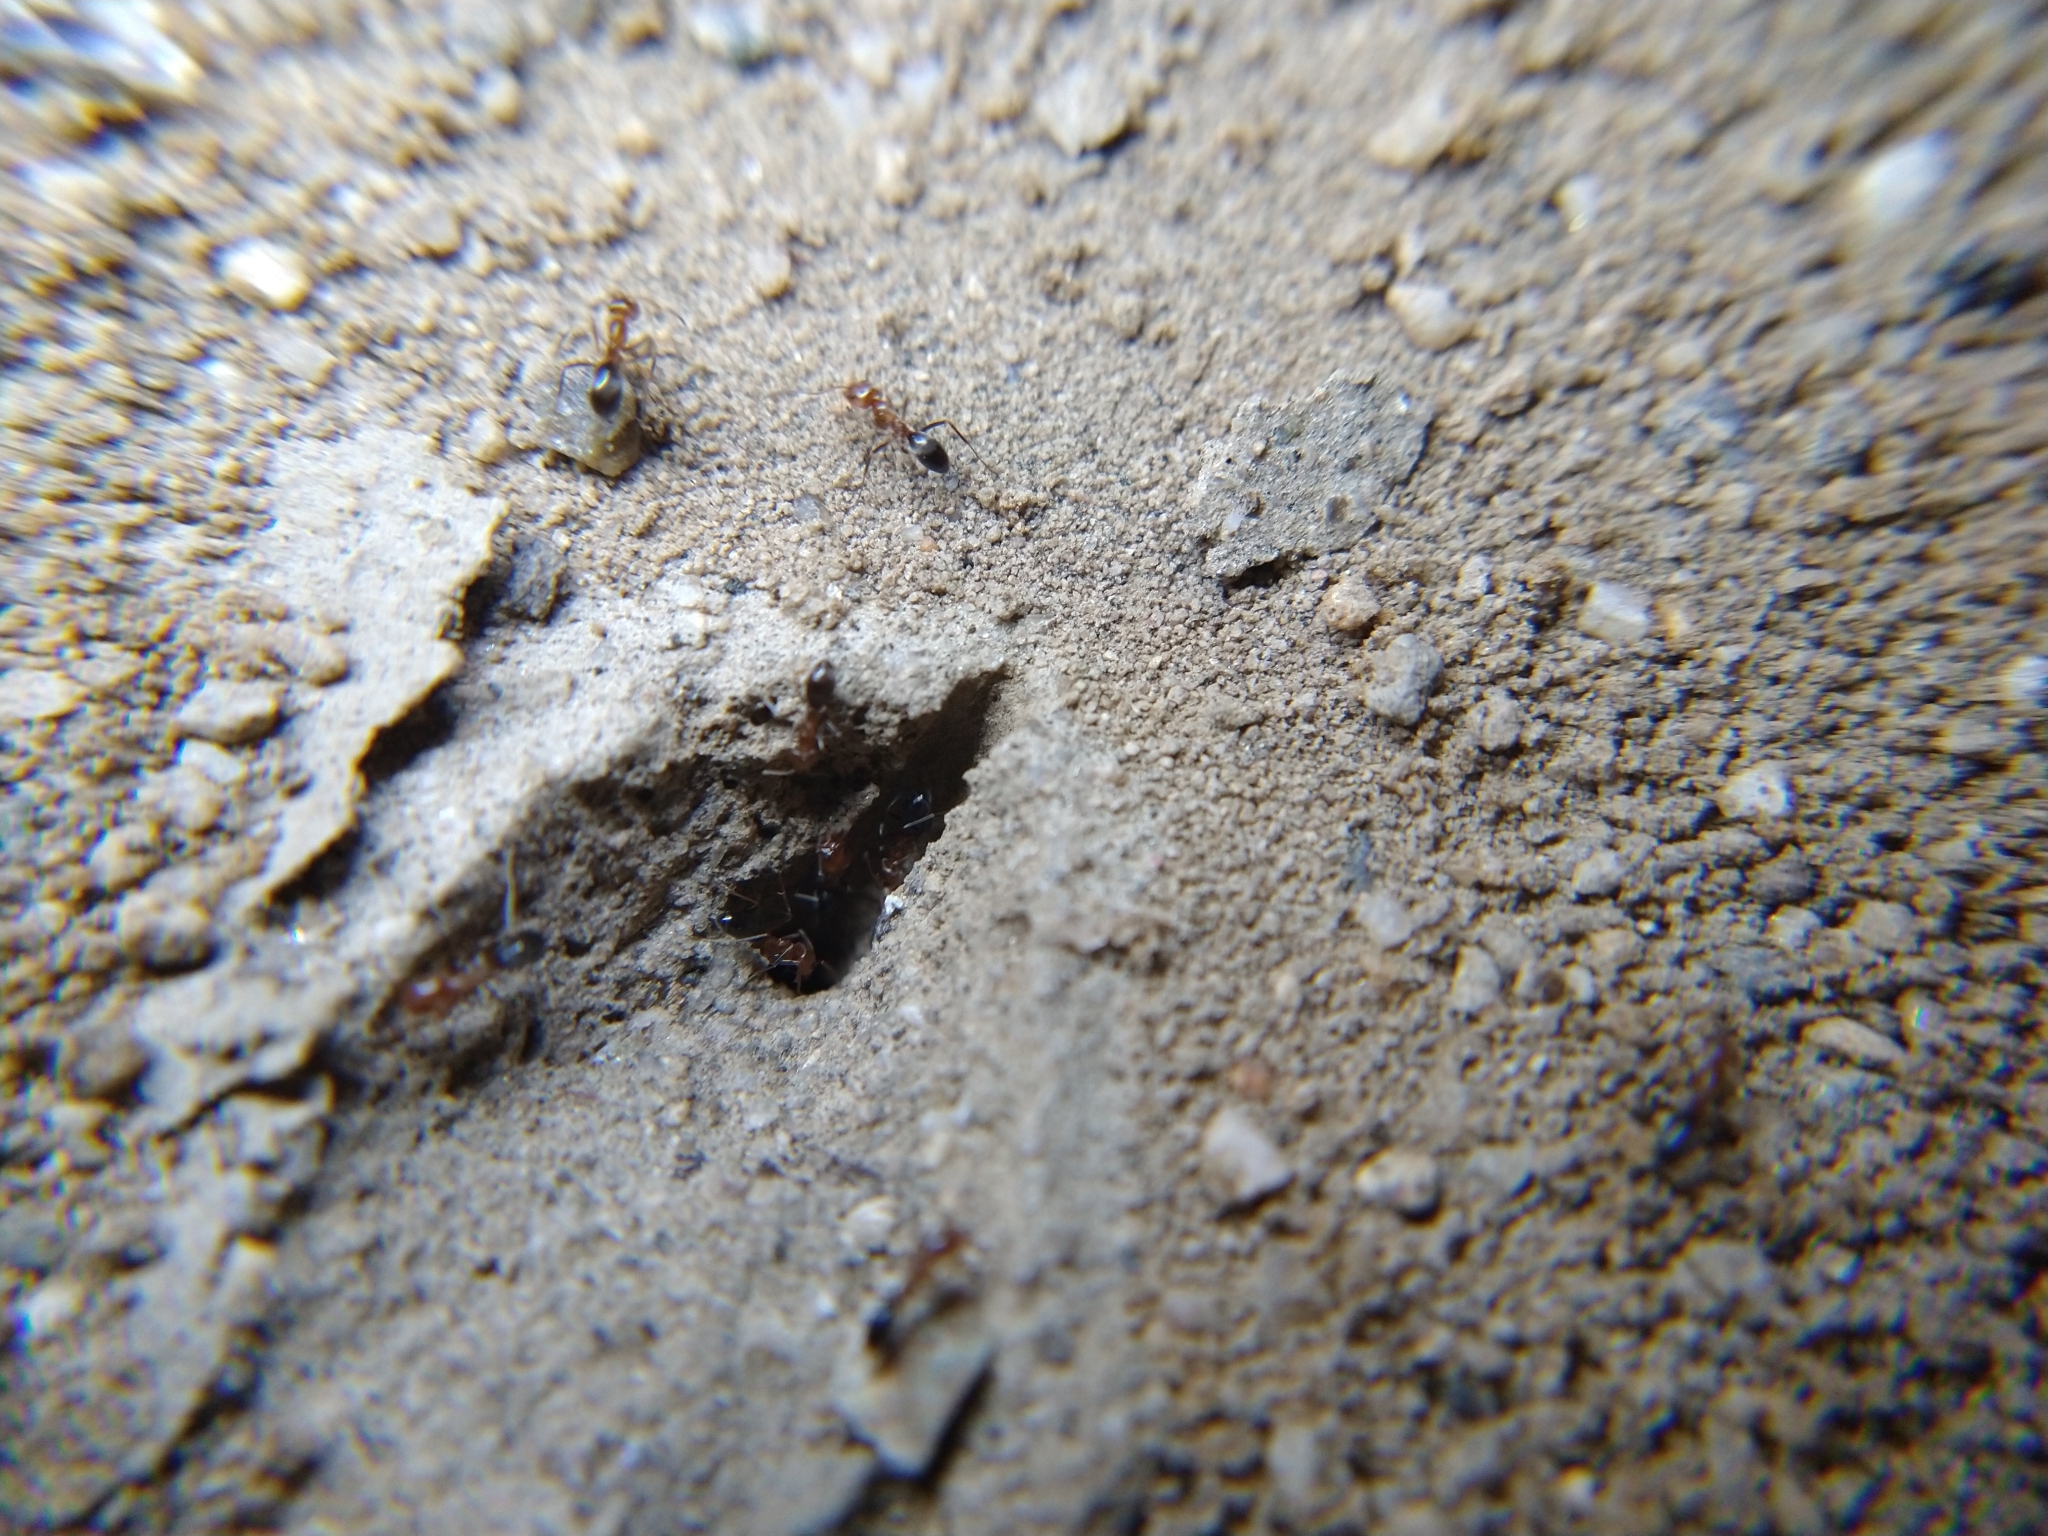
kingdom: Animalia
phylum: Arthropoda
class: Insecta
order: Hymenoptera
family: Formicidae
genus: Dorymyrmex
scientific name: Dorymyrmex bicolor
